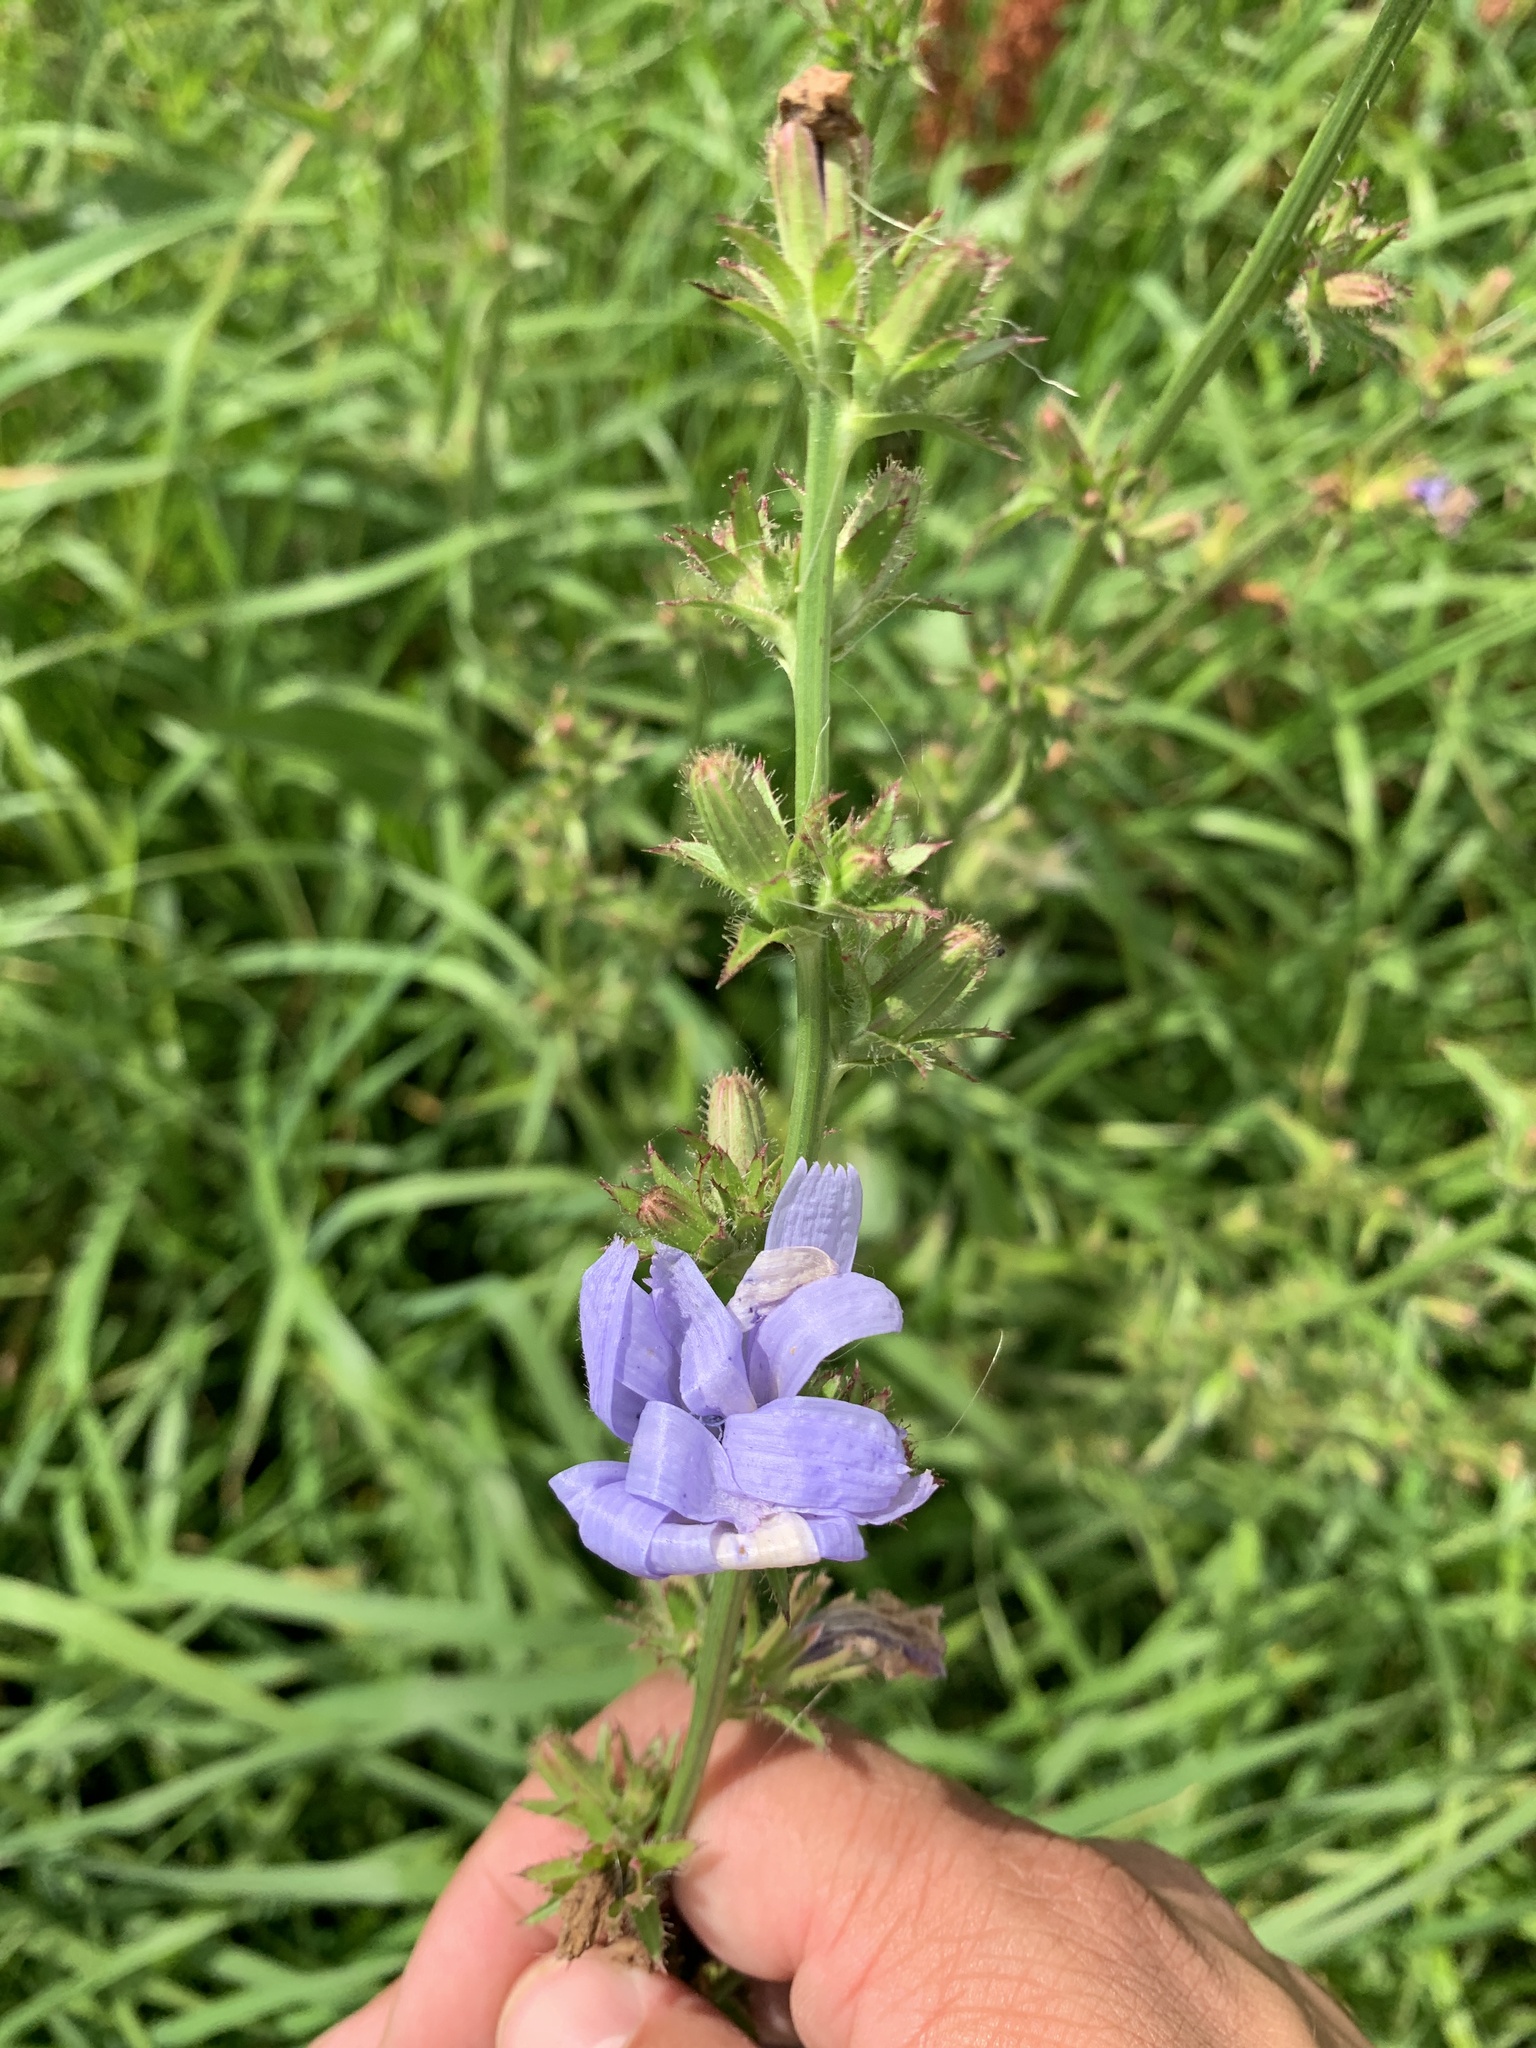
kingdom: Plantae
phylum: Tracheophyta
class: Magnoliopsida
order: Asterales
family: Asteraceae
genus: Cichorium
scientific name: Cichorium intybus
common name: Chicory
